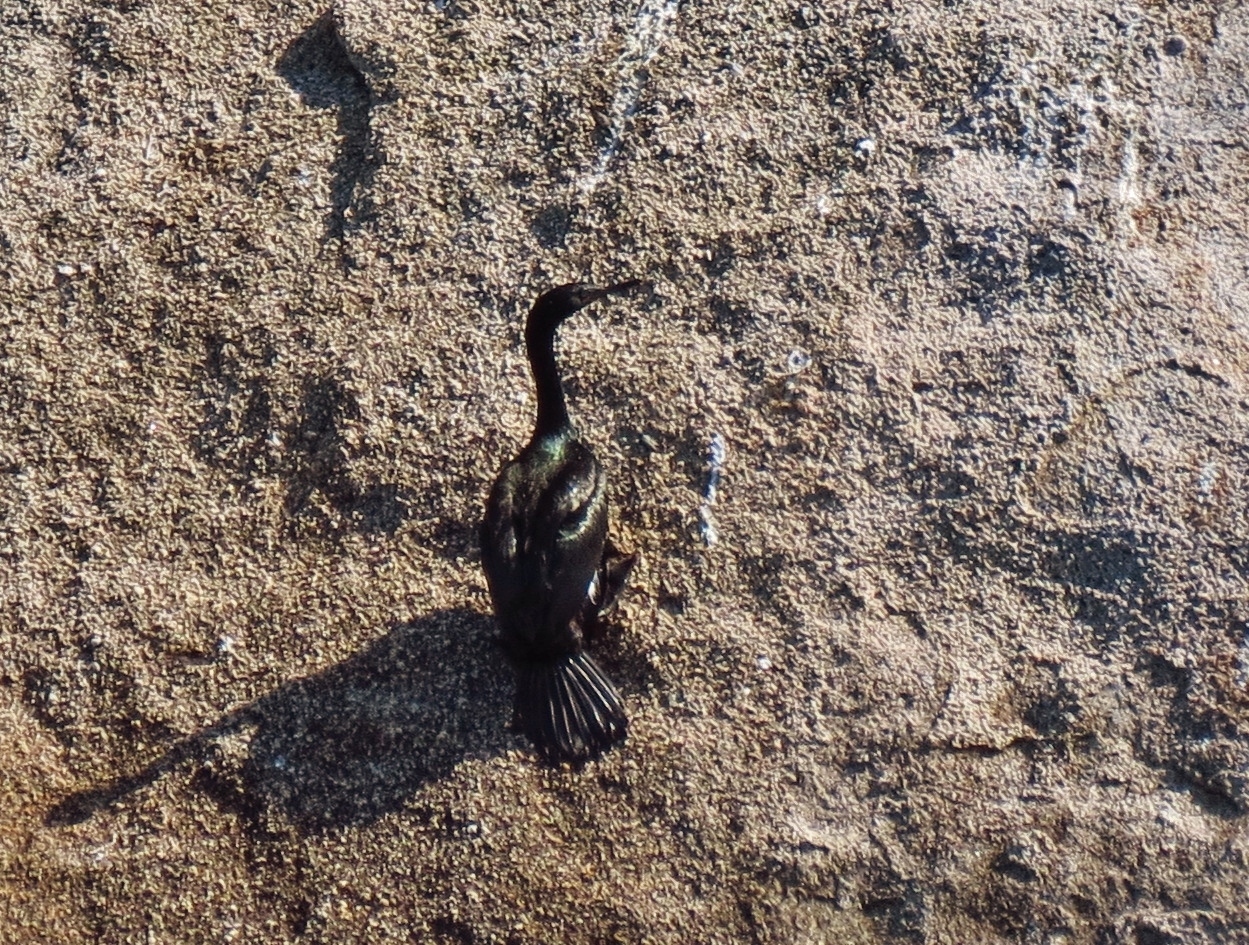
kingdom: Animalia
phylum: Chordata
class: Aves
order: Suliformes
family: Phalacrocoracidae
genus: Phalacrocorax
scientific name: Phalacrocorax pelagicus
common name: Pelagic cormorant
